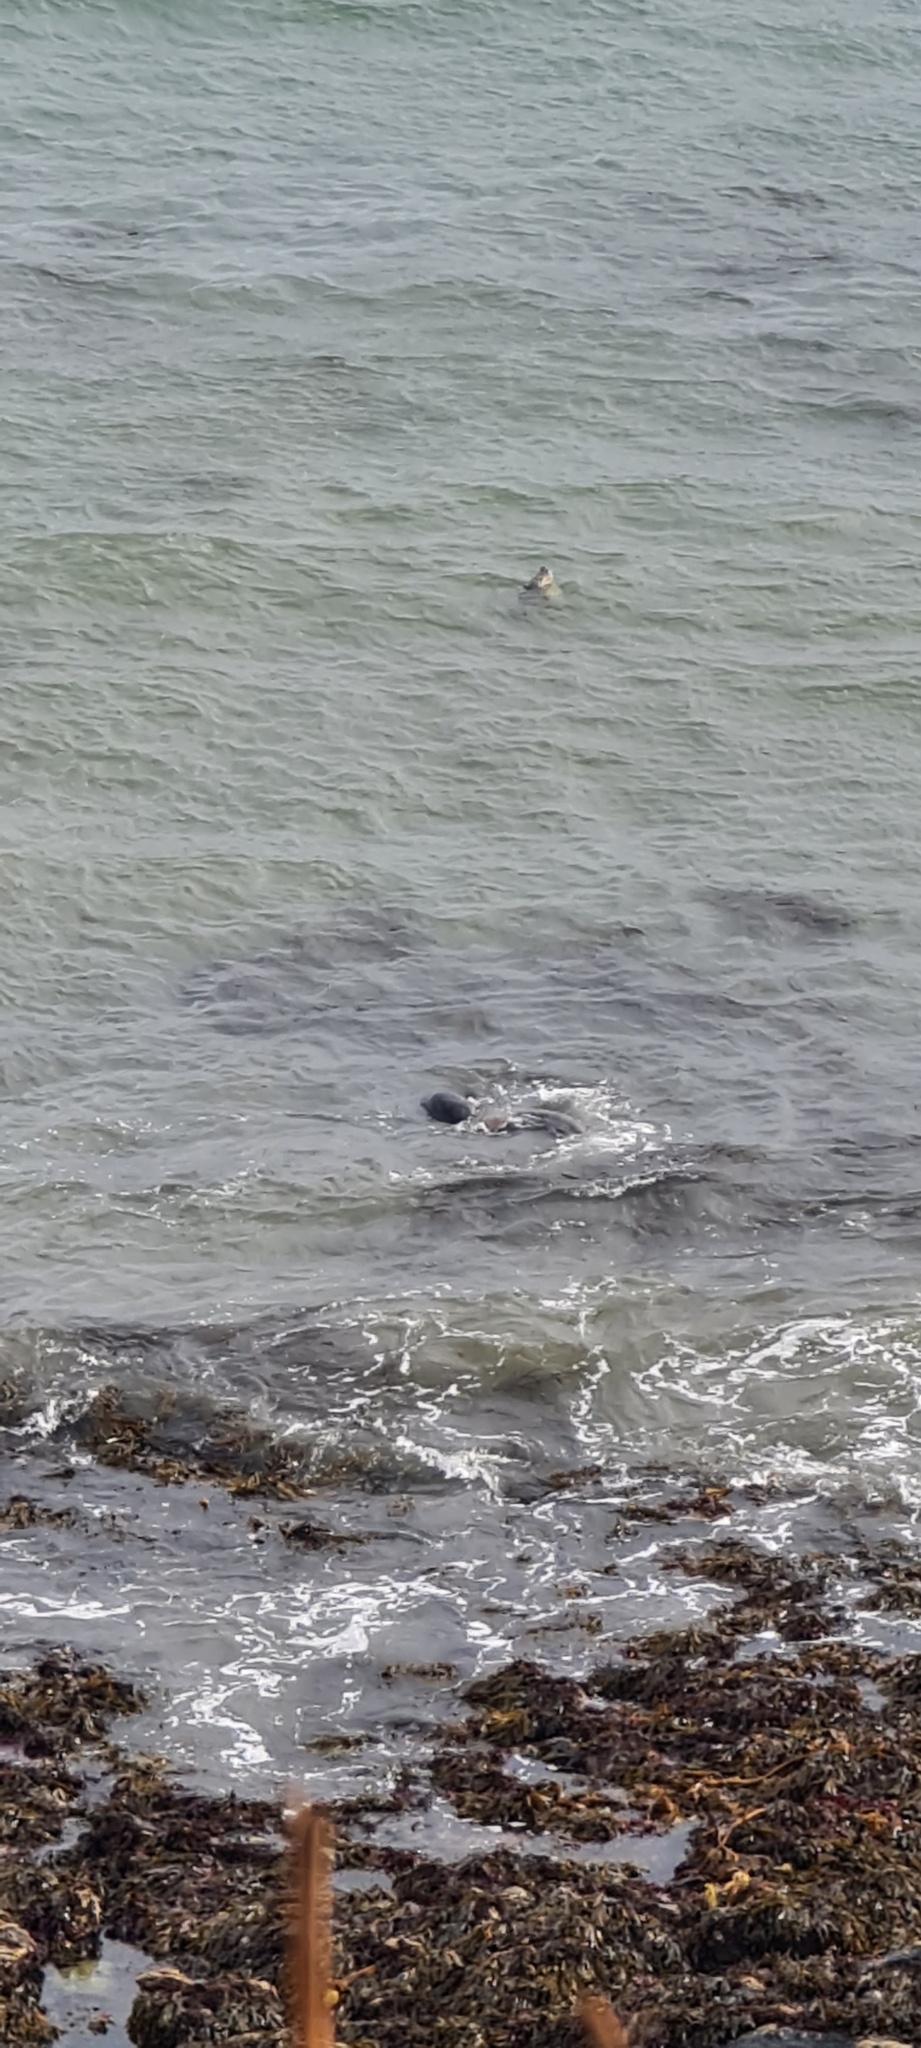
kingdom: Animalia
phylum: Chordata
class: Mammalia
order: Carnivora
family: Phocidae
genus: Halichoerus
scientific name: Halichoerus grypus
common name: Grey seal
